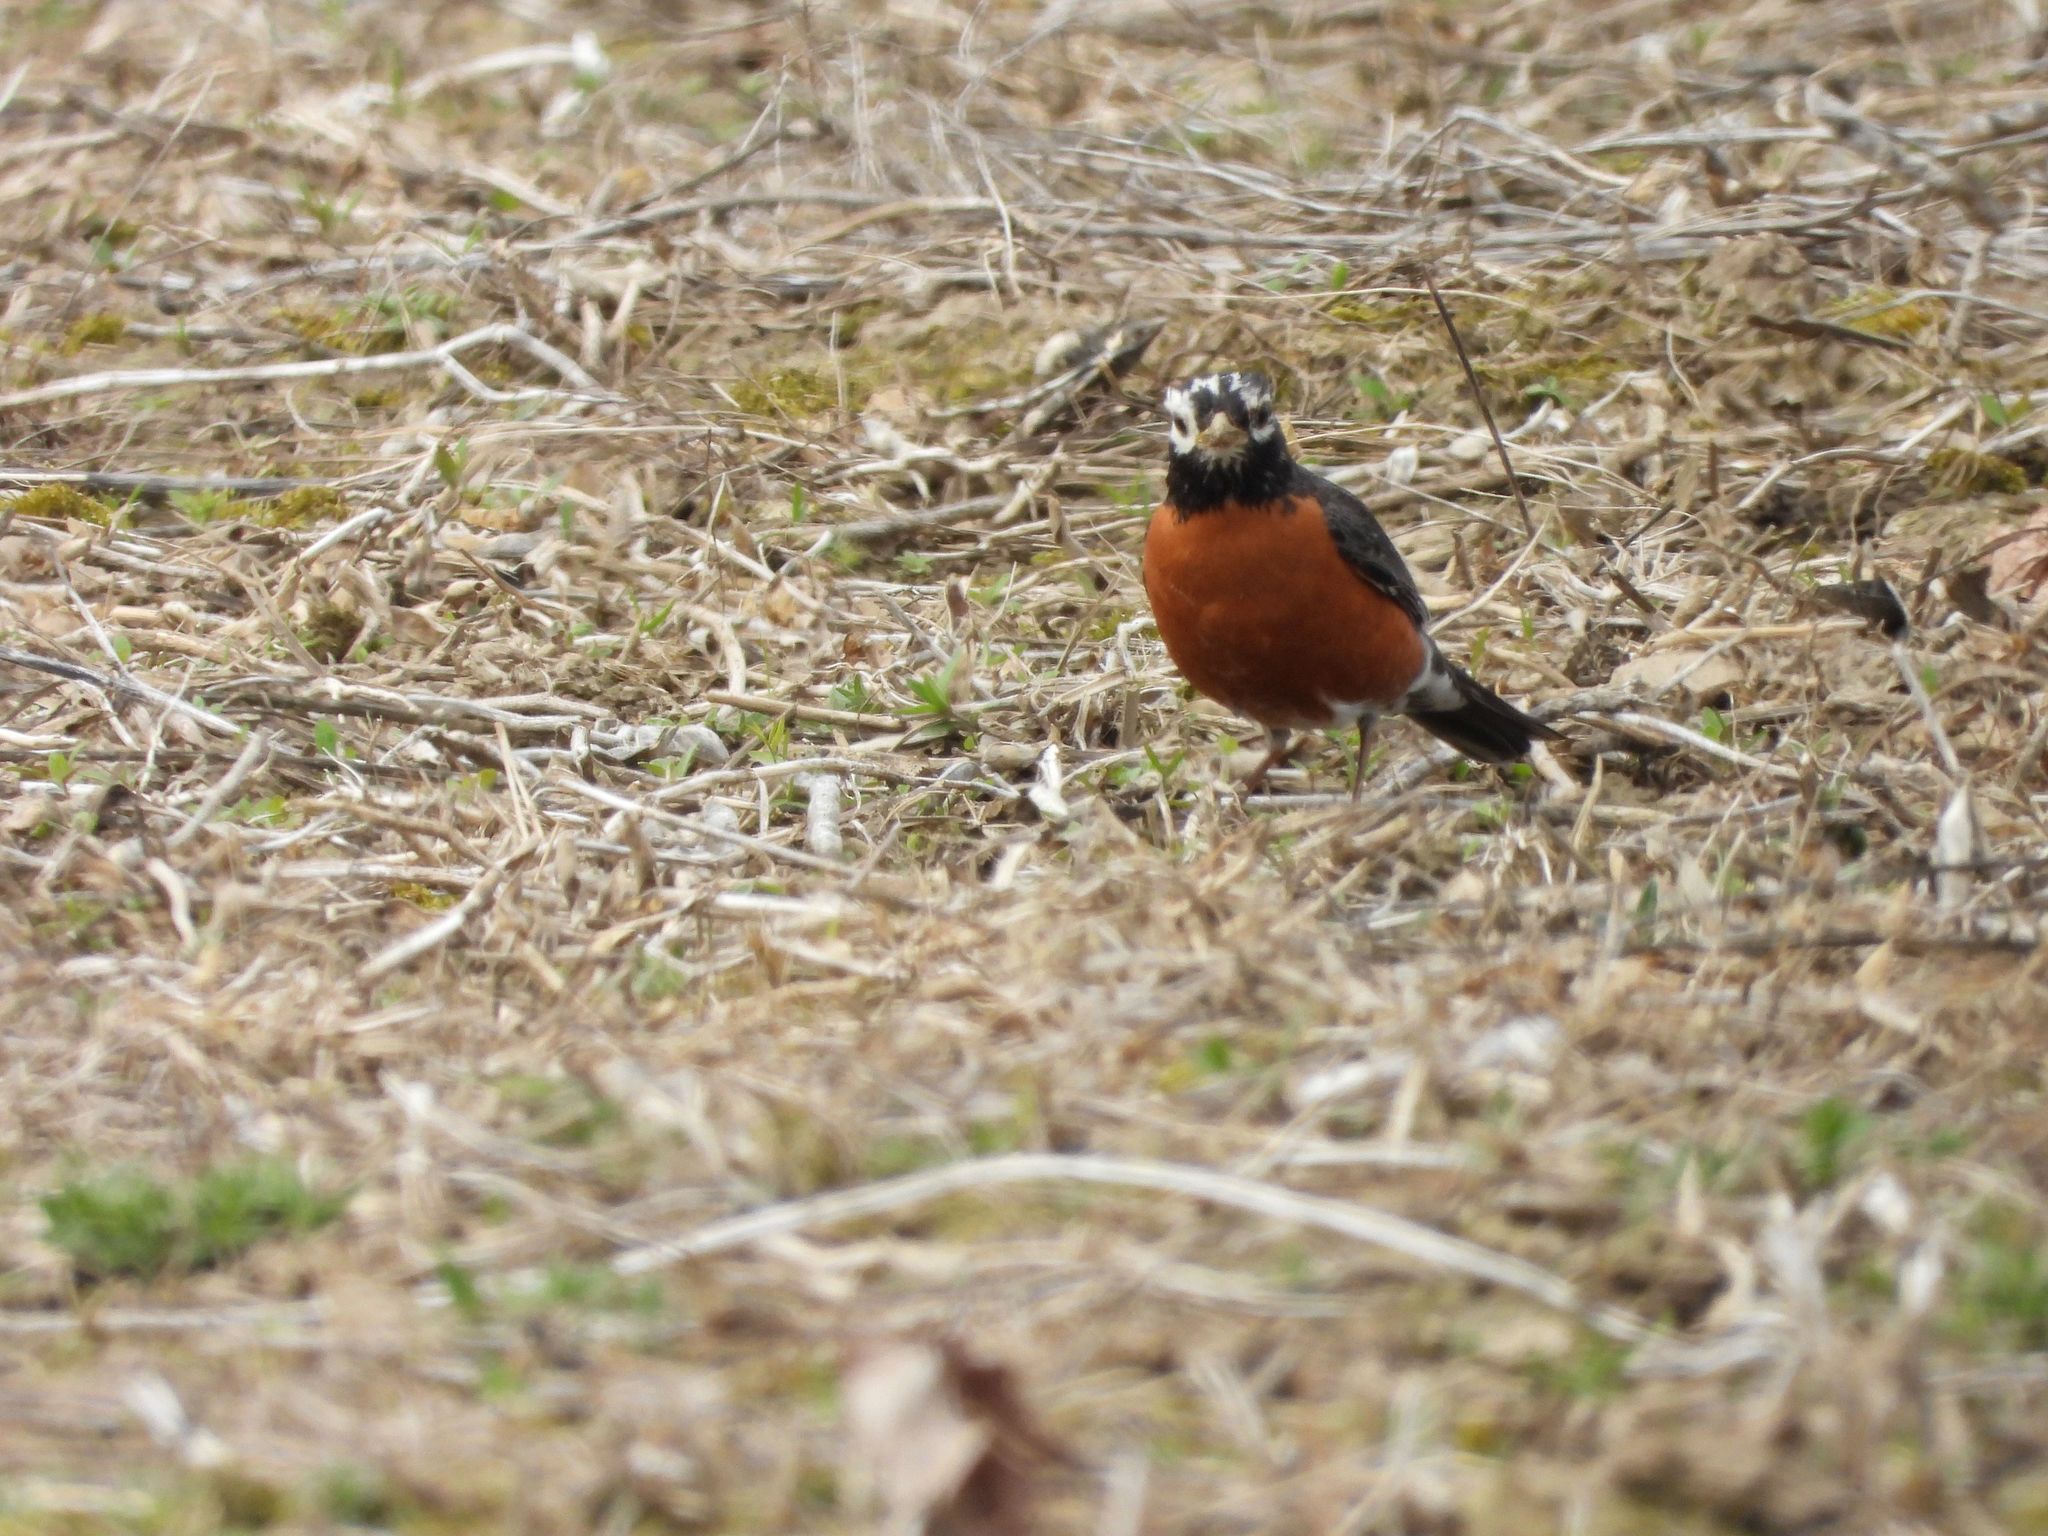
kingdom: Animalia
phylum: Chordata
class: Aves
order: Passeriformes
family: Turdidae
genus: Turdus
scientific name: Turdus migratorius
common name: American robin
